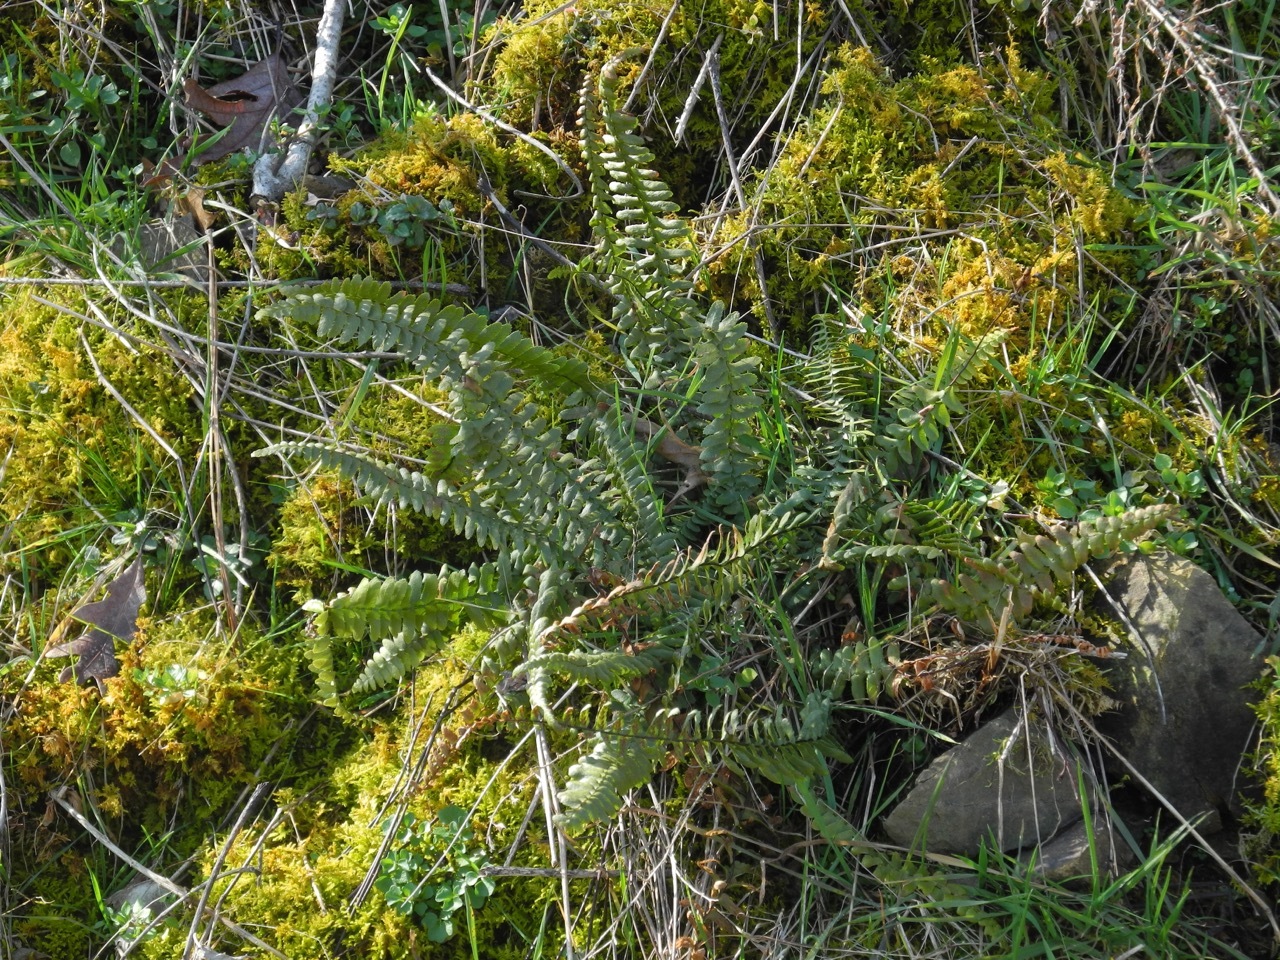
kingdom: Plantae
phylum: Tracheophyta
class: Polypodiopsida
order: Polypodiales
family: Aspleniaceae
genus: Asplenium
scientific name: Asplenium platyneuron
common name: Ebony spleenwort
